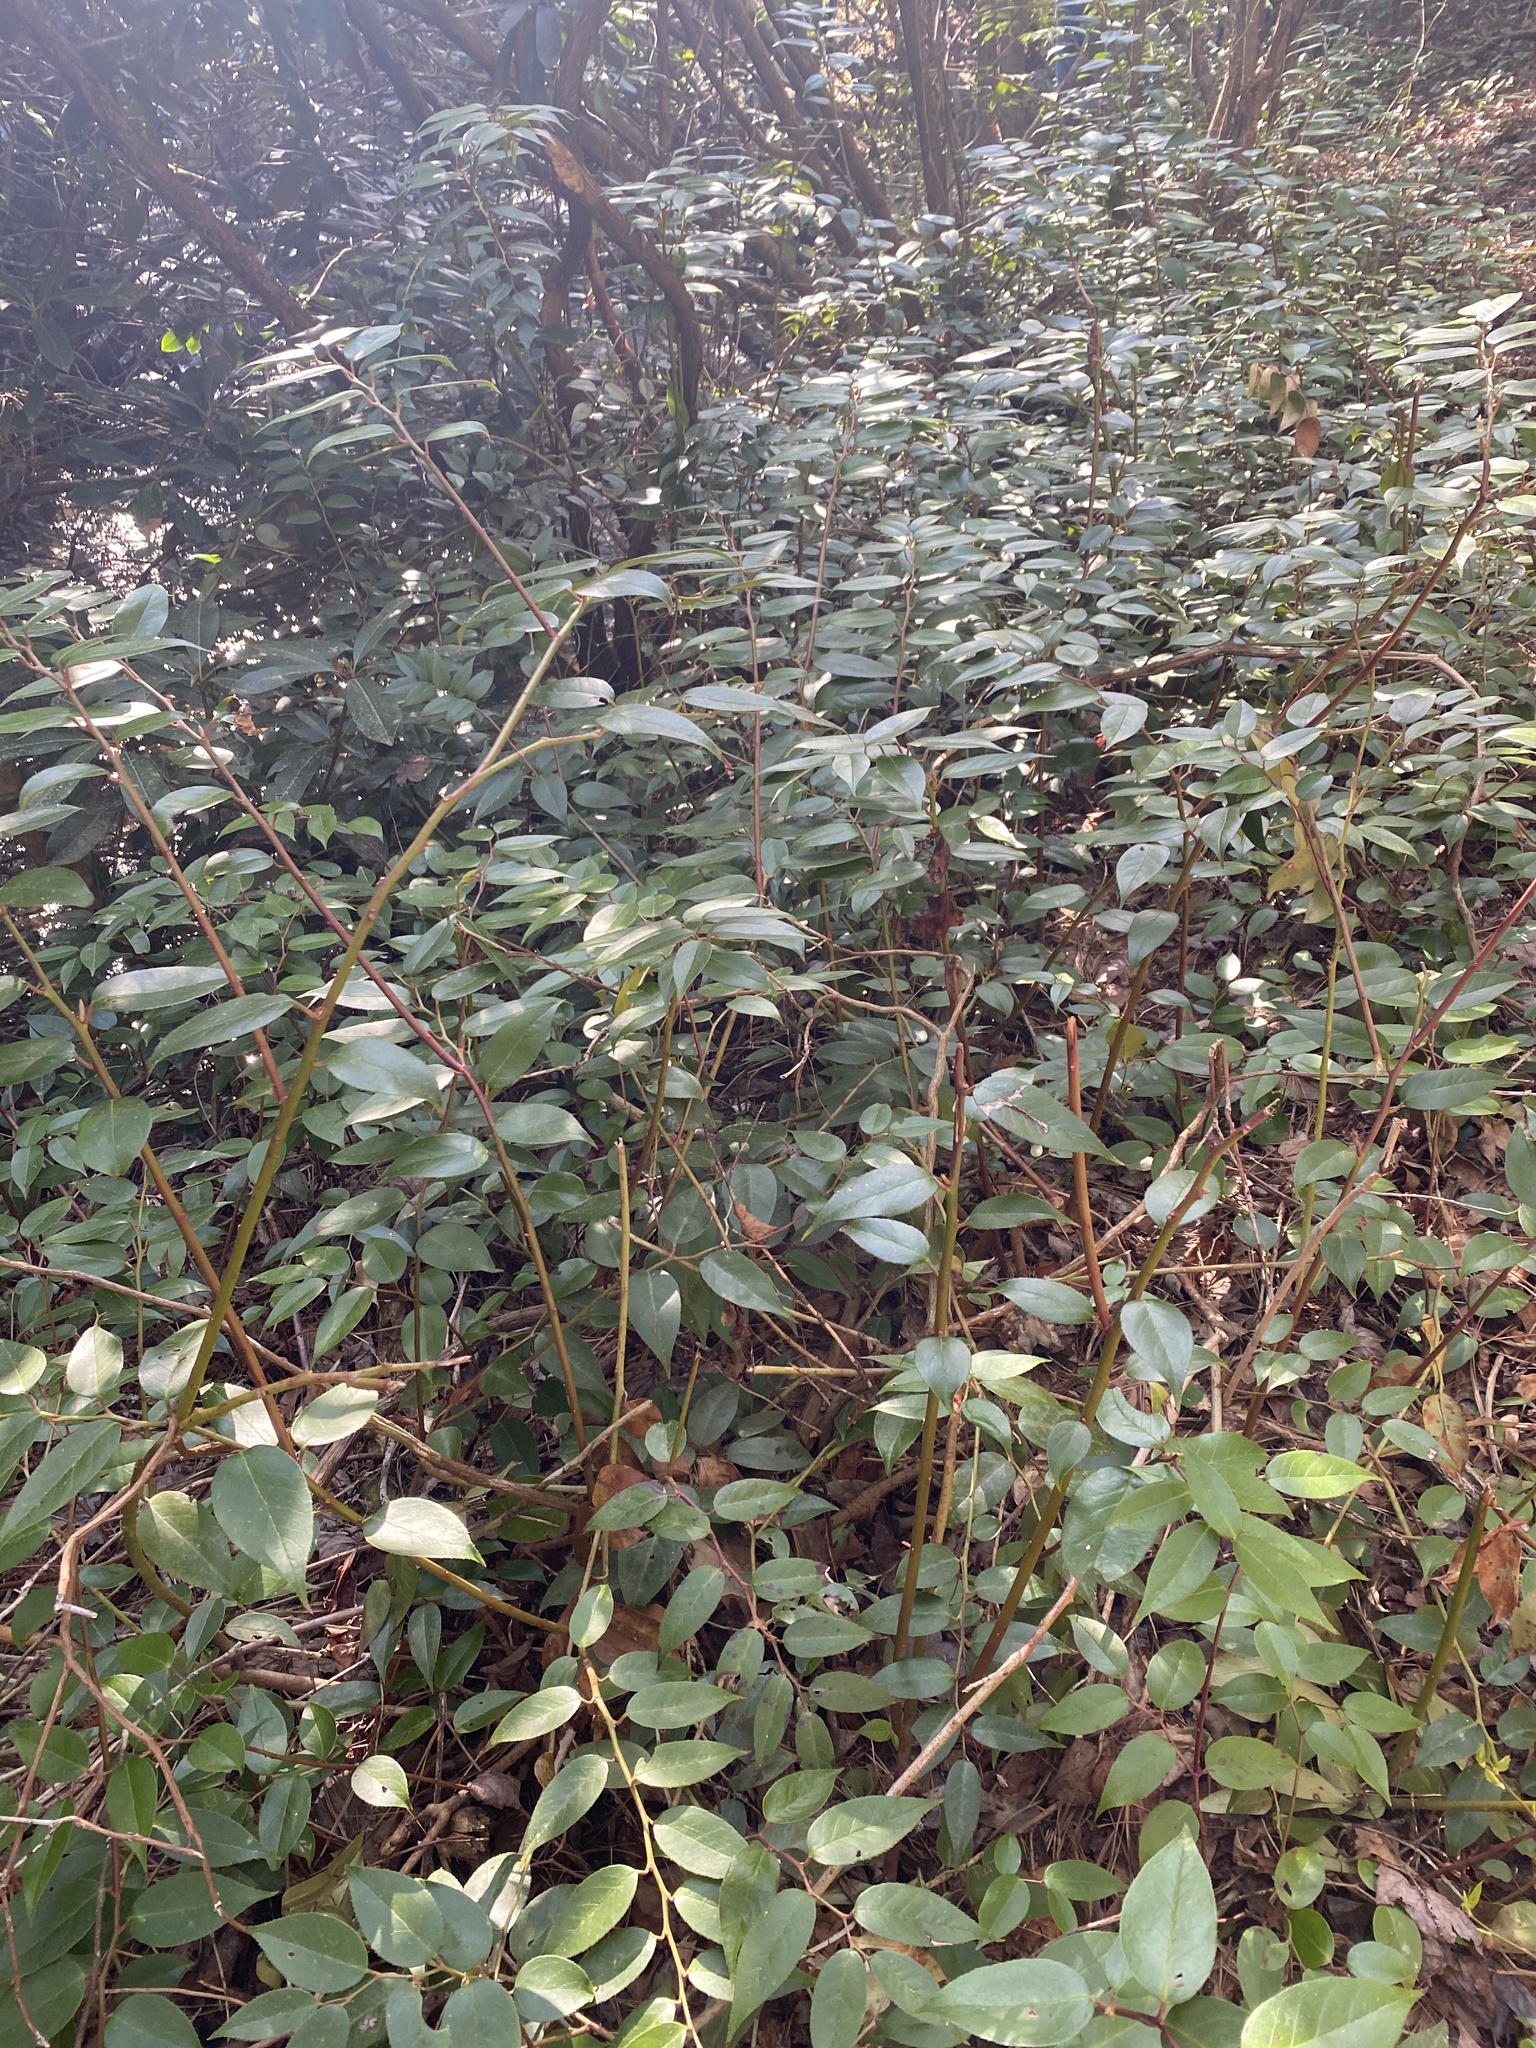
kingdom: Plantae
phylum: Tracheophyta
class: Magnoliopsida
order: Ericales
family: Ericaceae
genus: Leucothoe
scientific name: Leucothoe fontanesiana
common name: Fetterbush
